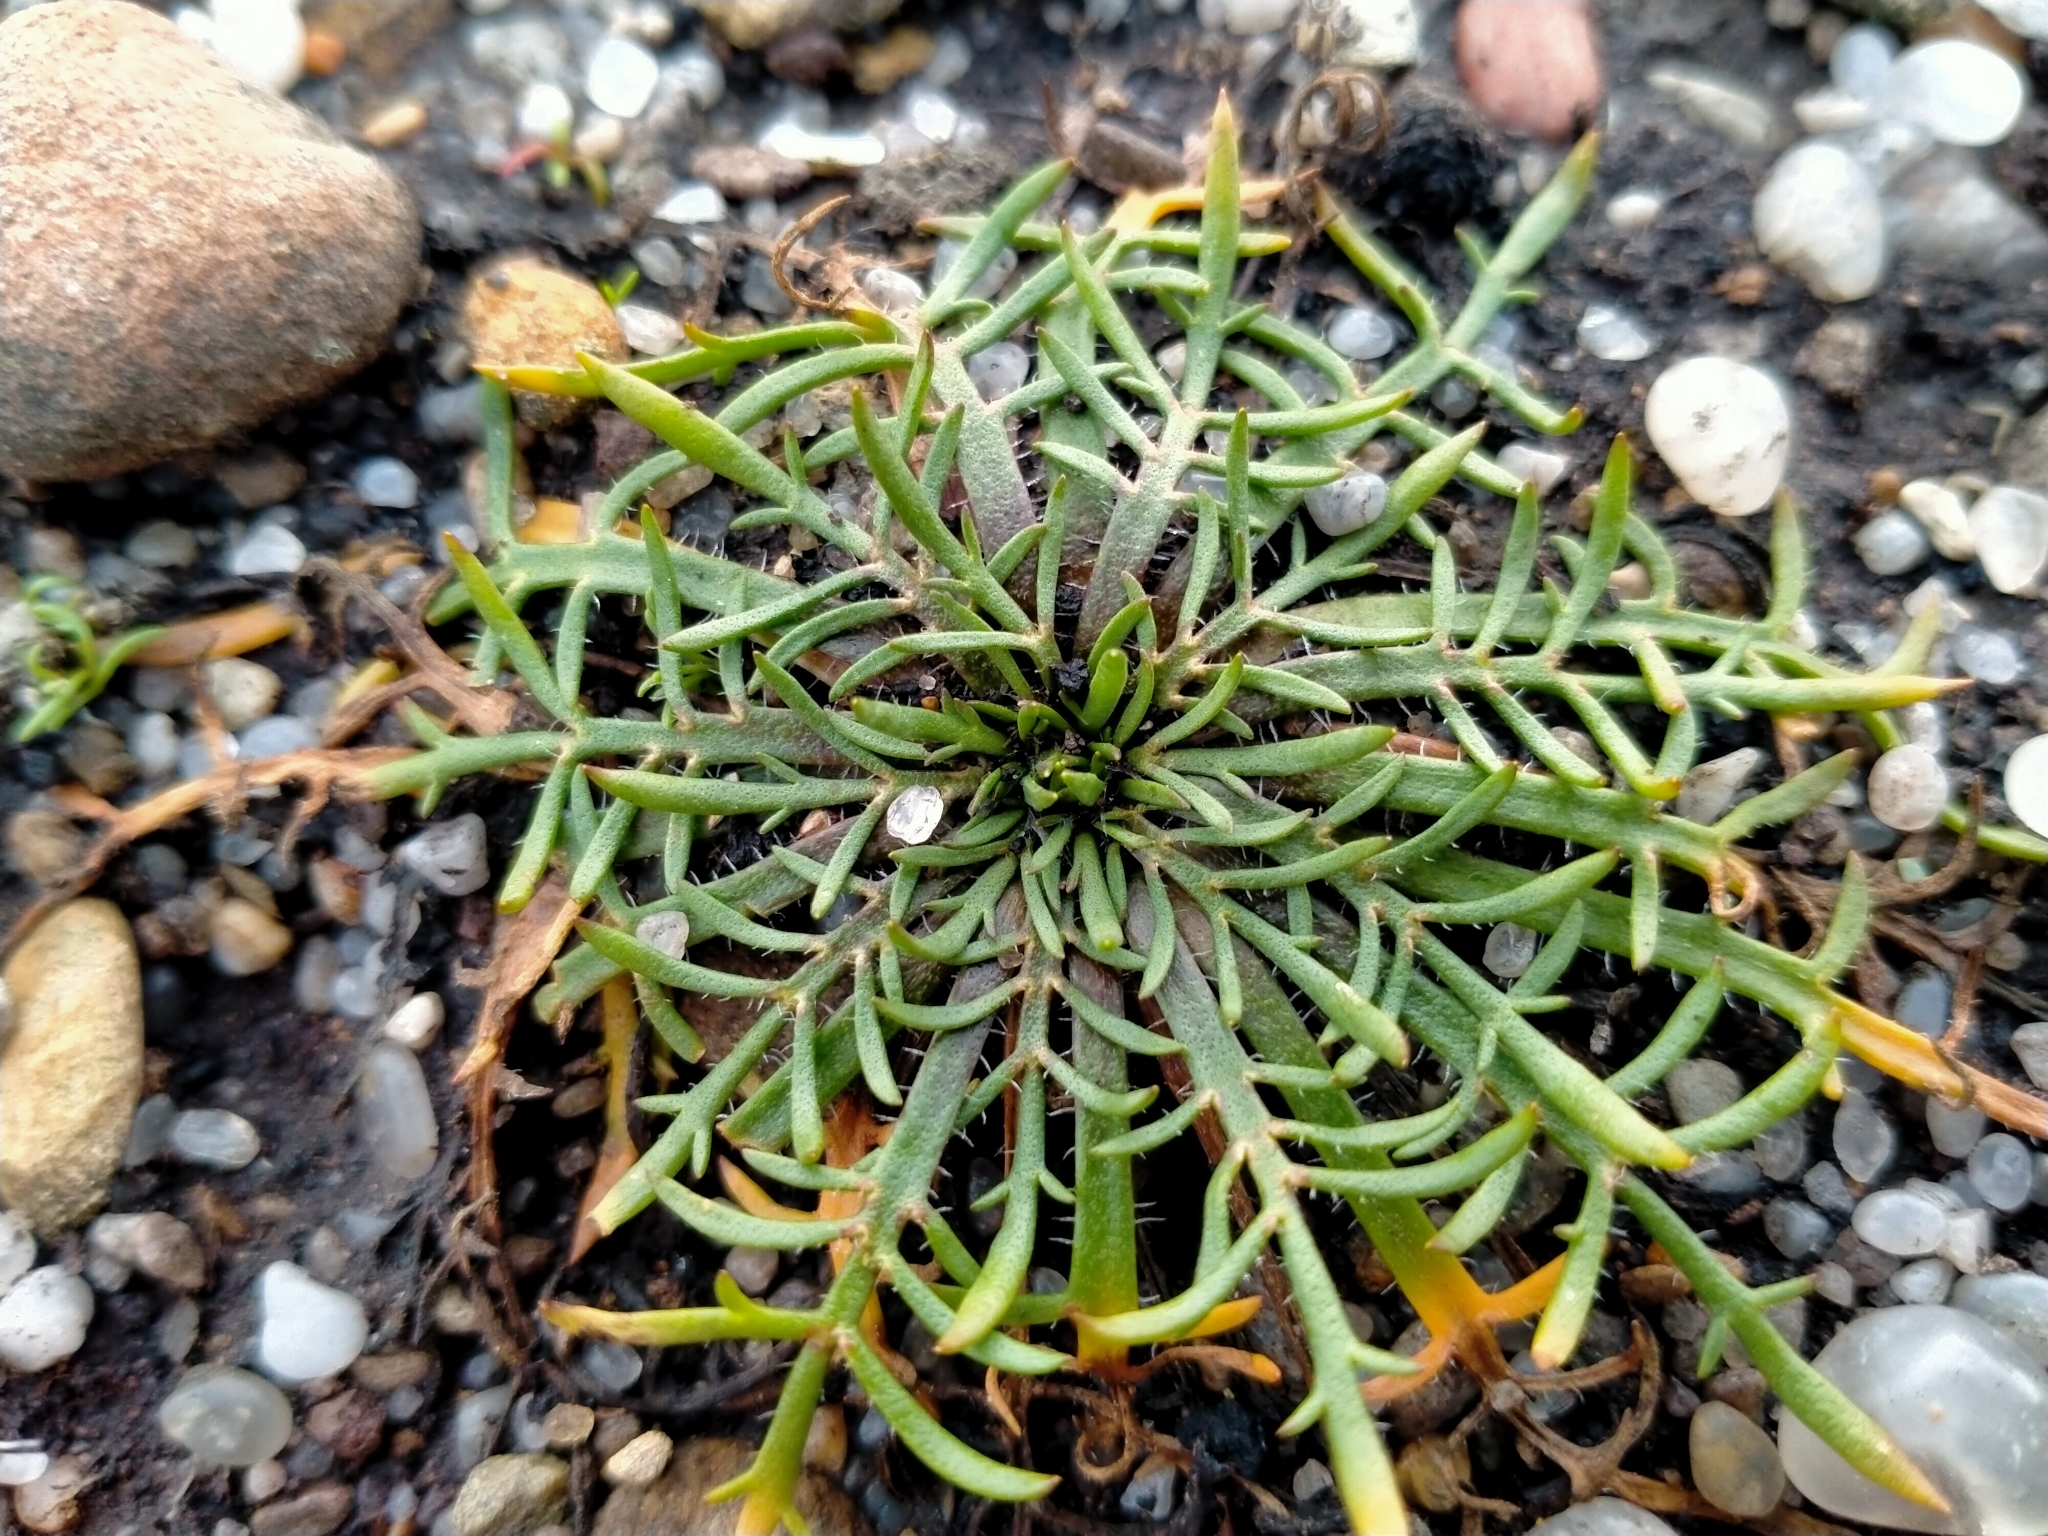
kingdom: Plantae
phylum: Tracheophyta
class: Magnoliopsida
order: Lamiales
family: Plantaginaceae
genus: Plantago
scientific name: Plantago coronopus
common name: Buck's-horn plantain
